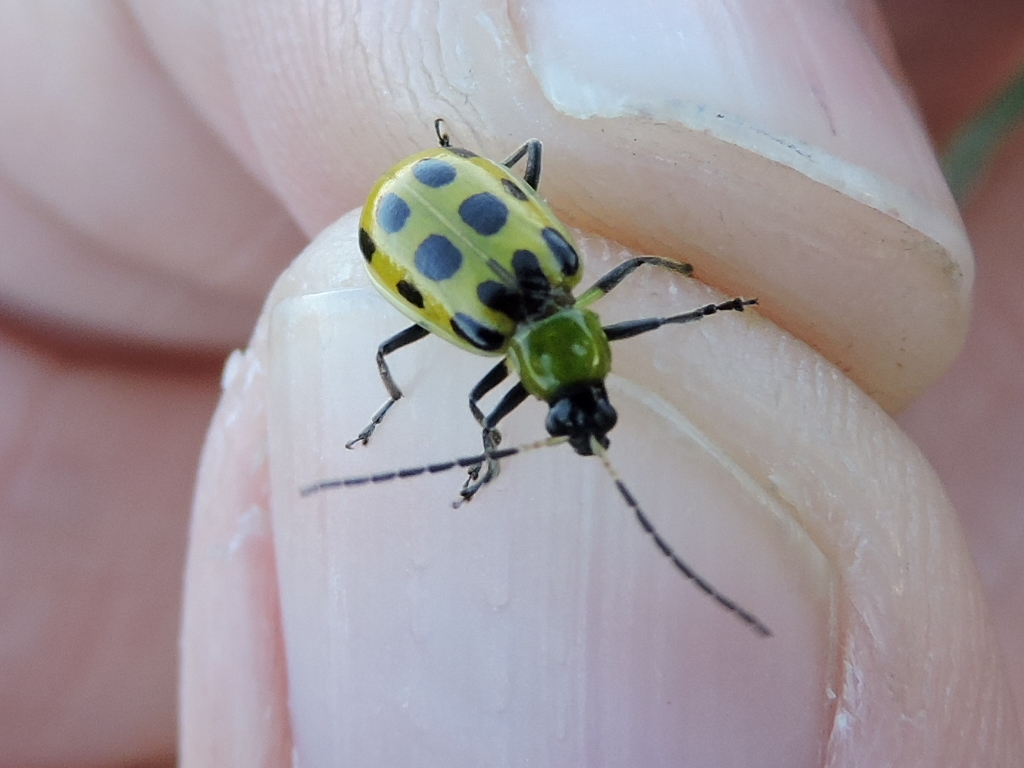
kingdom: Animalia
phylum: Arthropoda
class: Insecta
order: Coleoptera
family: Chrysomelidae
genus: Diabrotica
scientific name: Diabrotica undecimpunctata
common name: Spotted cucumber beetle
